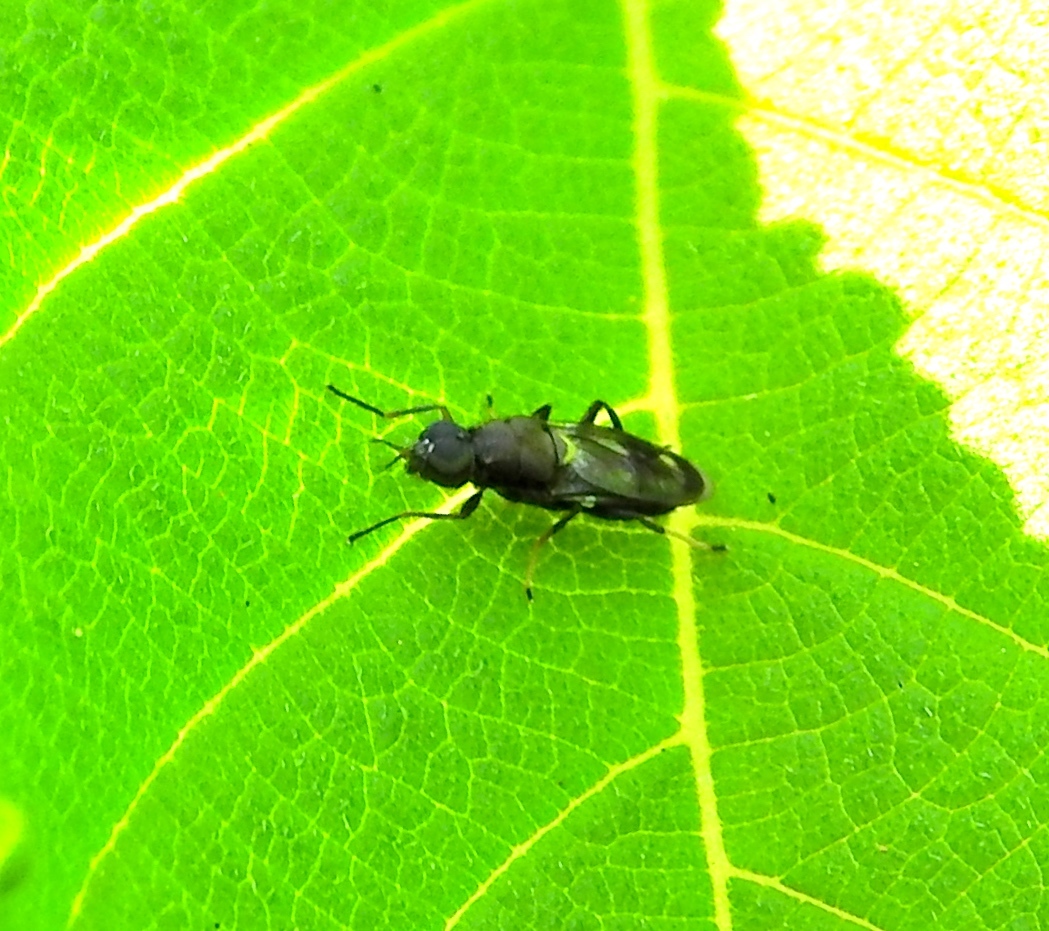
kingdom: Animalia
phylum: Arthropoda
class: Insecta
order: Diptera
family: Stratiomyidae
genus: Myxosargus
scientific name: Myxosargus
